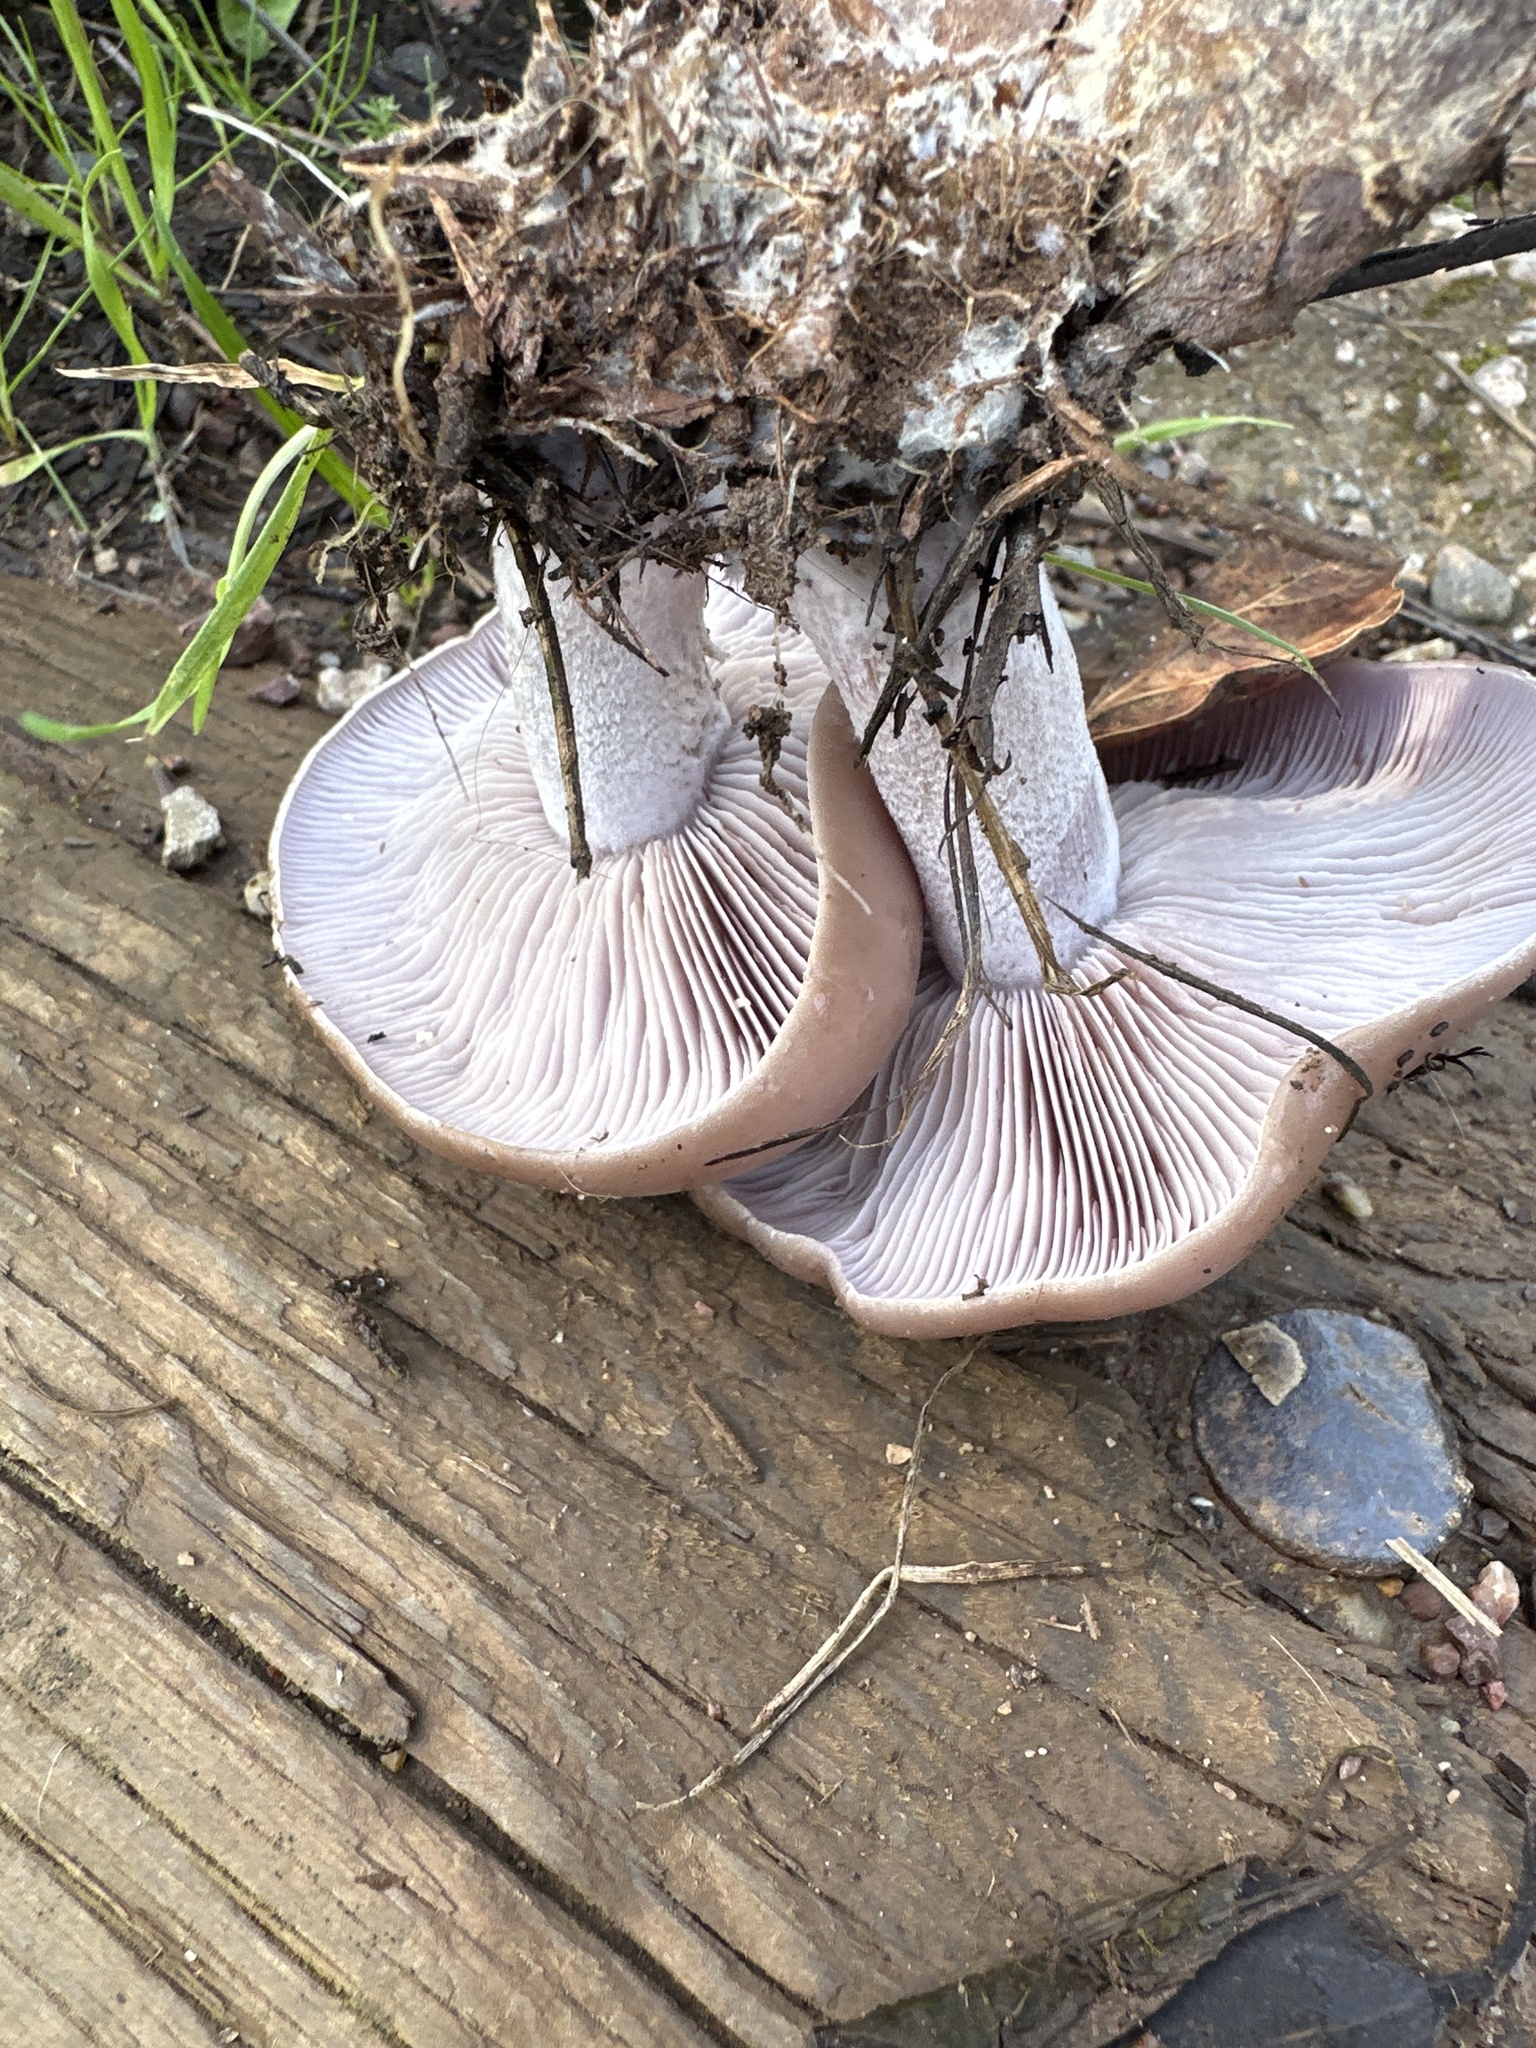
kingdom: Fungi
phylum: Basidiomycota
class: Agaricomycetes
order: Agaricales
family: Tricholomataceae
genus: Collybia
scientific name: Collybia
